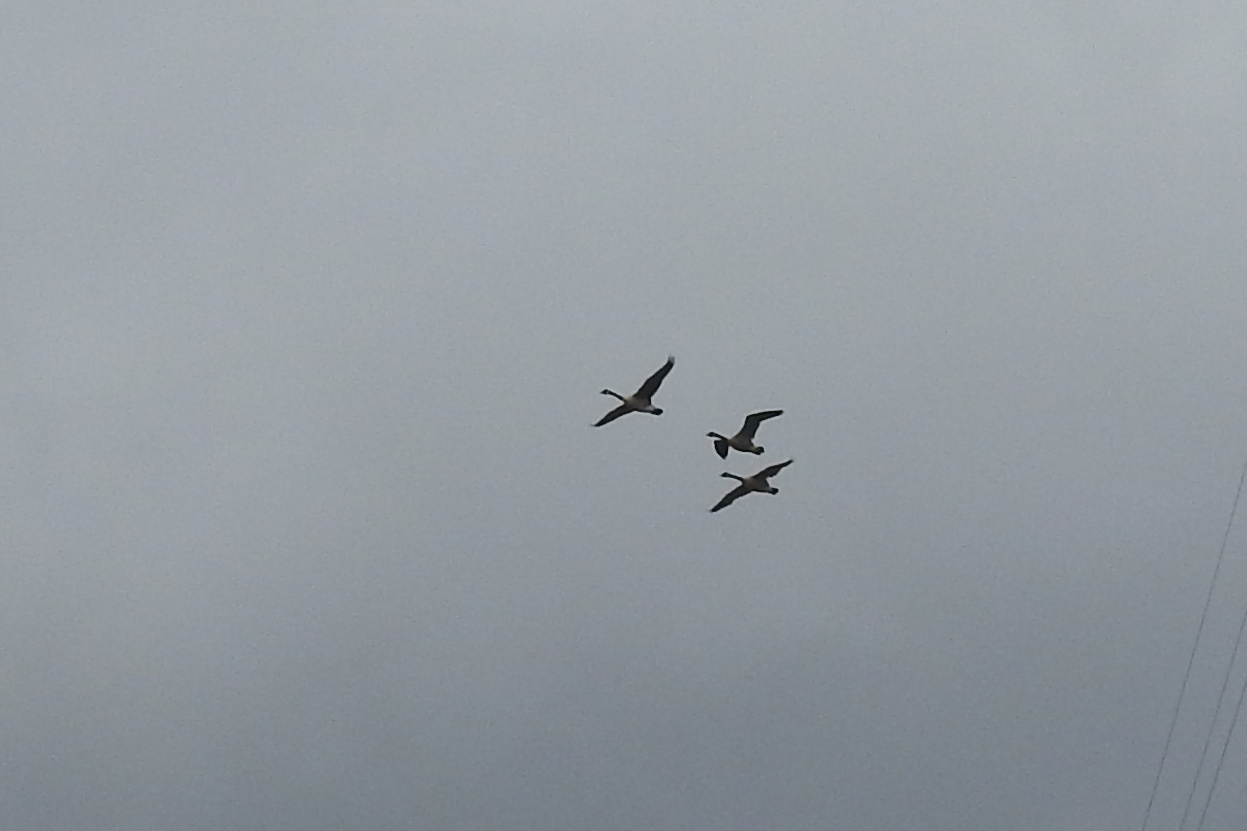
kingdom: Animalia
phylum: Chordata
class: Aves
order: Anseriformes
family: Anatidae
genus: Branta
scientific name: Branta canadensis
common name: Canada goose
